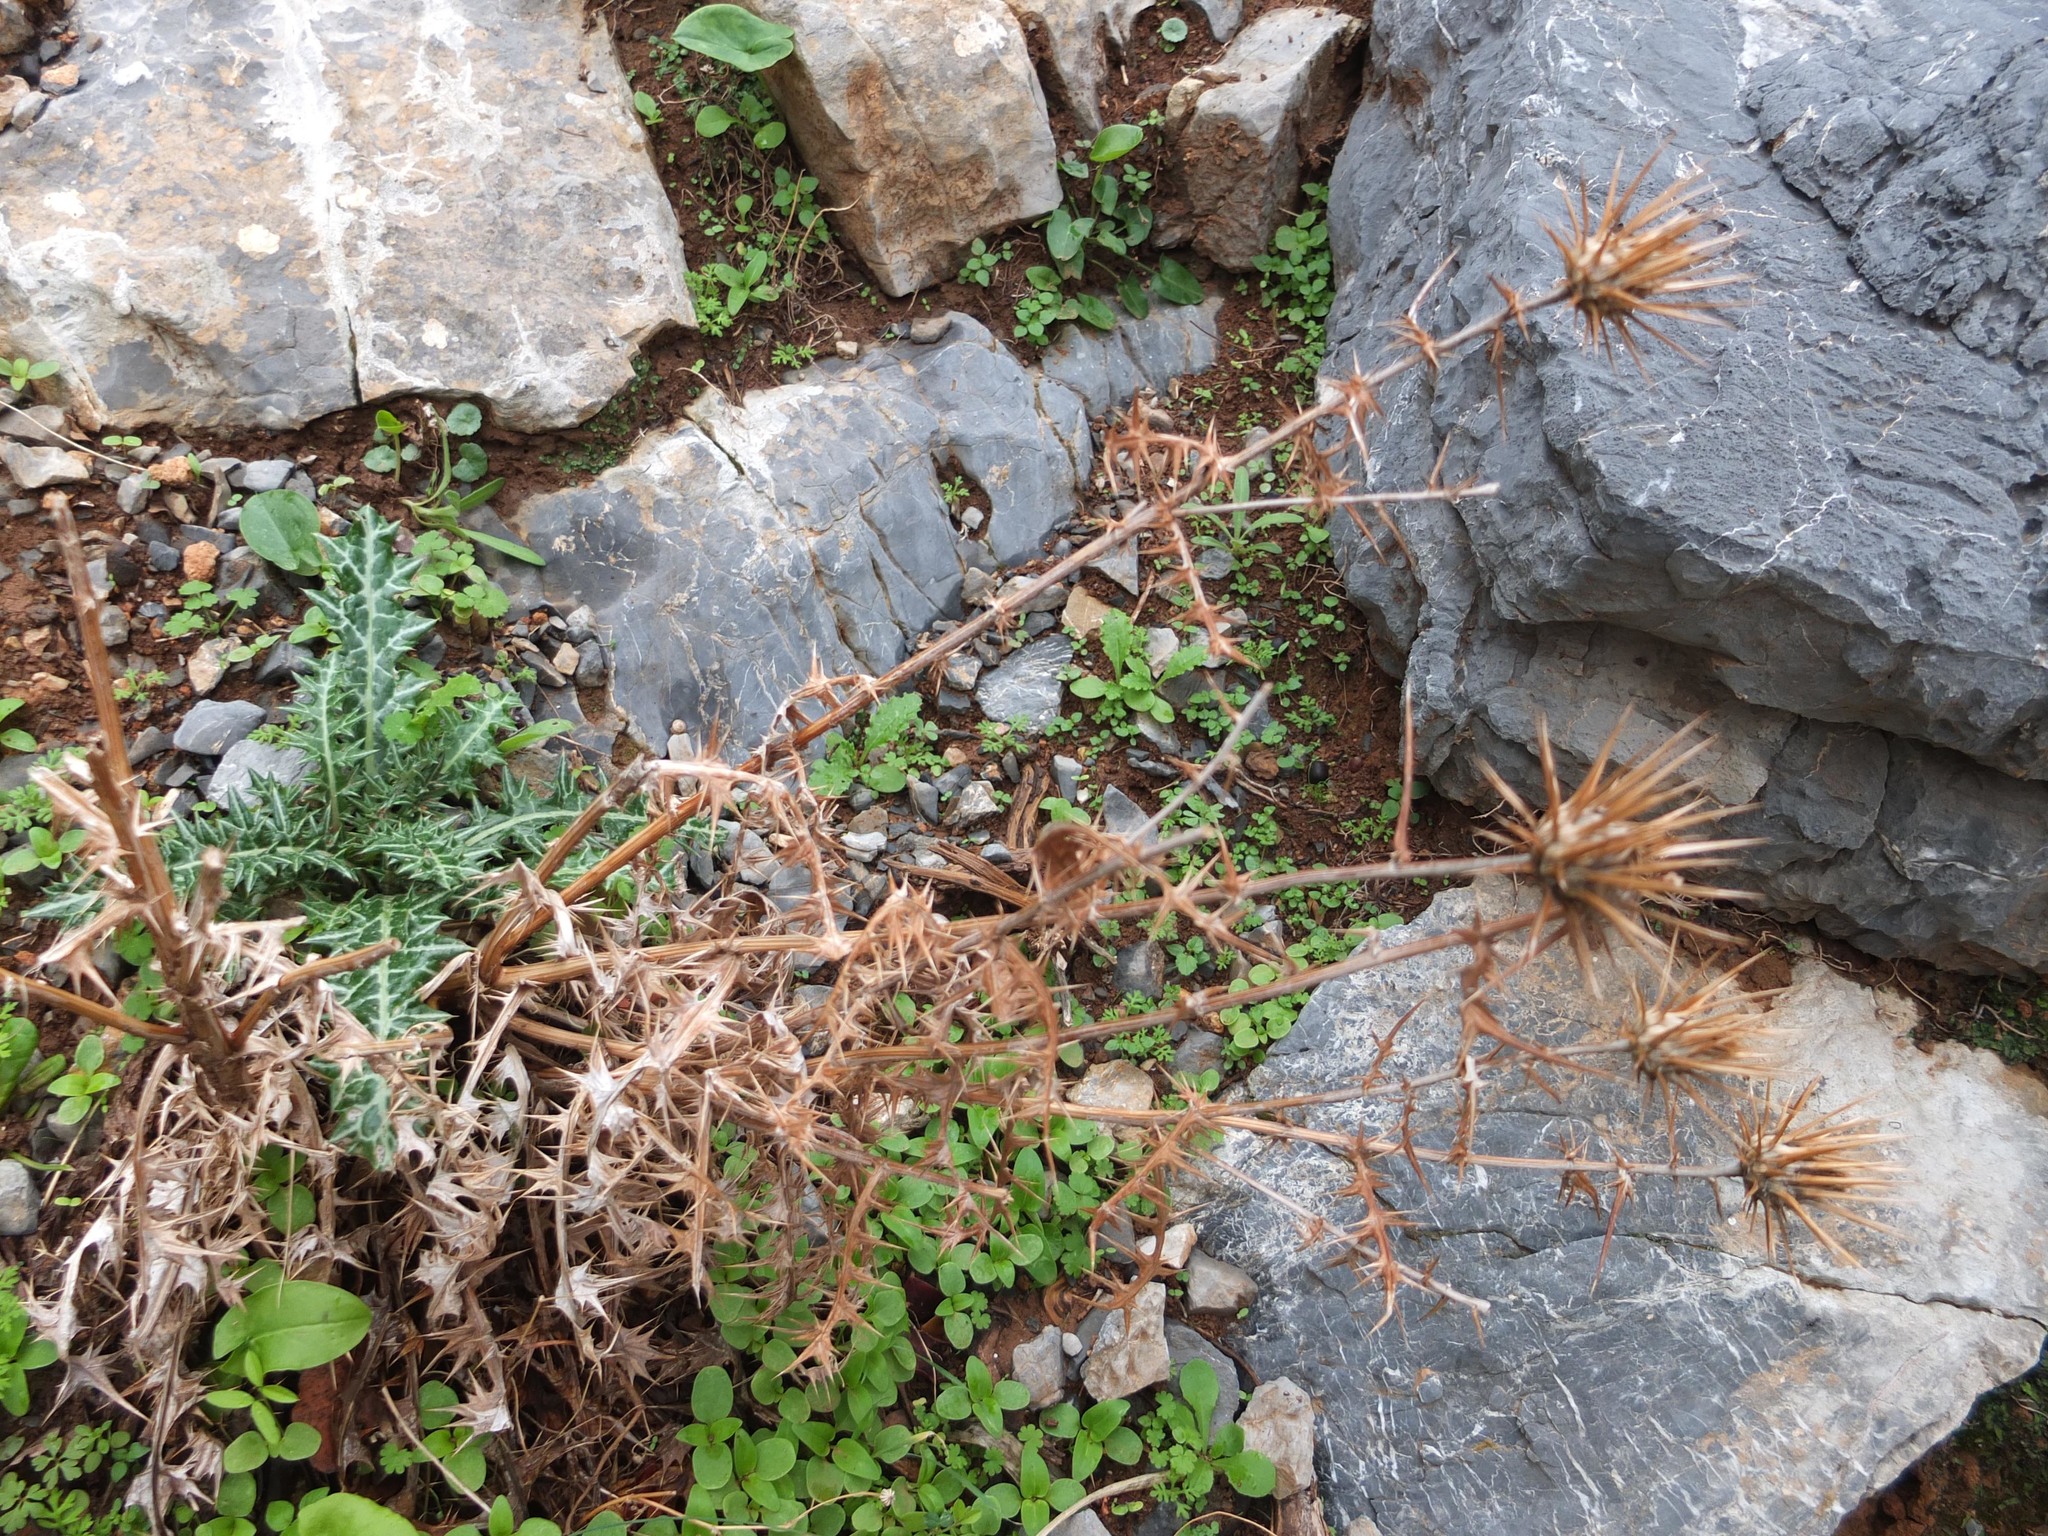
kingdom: Plantae
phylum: Tracheophyta
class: Magnoliopsida
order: Asterales
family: Asteraceae
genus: Lamyropsis
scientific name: Lamyropsis cynaroides
